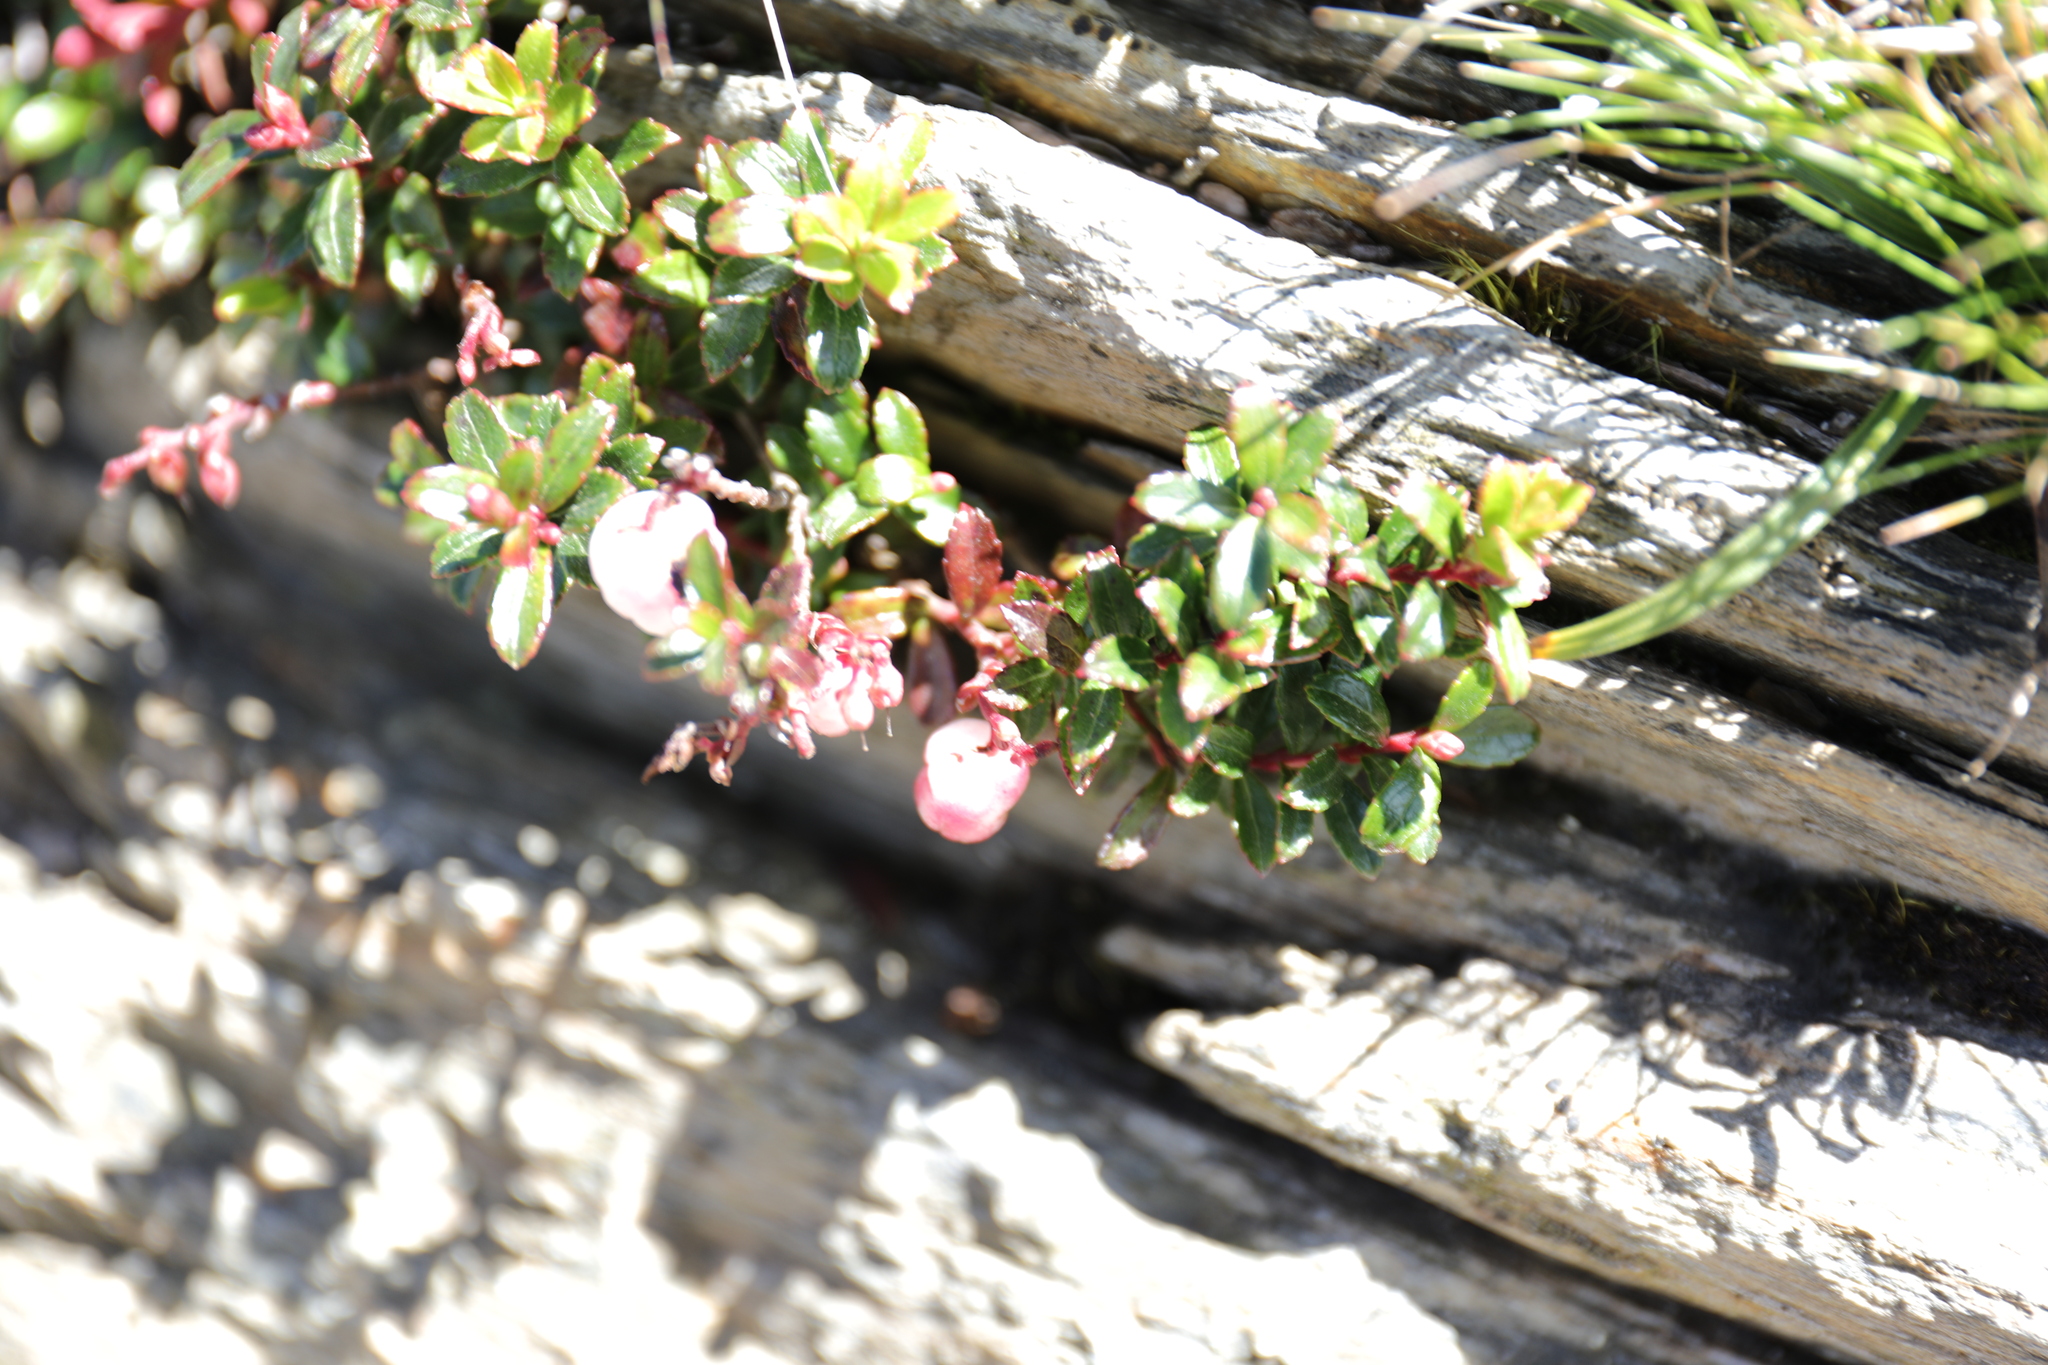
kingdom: Plantae
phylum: Tracheophyta
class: Magnoliopsida
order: Ericales
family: Ericaceae
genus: Gaultheria
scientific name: Gaultheria borneensis
